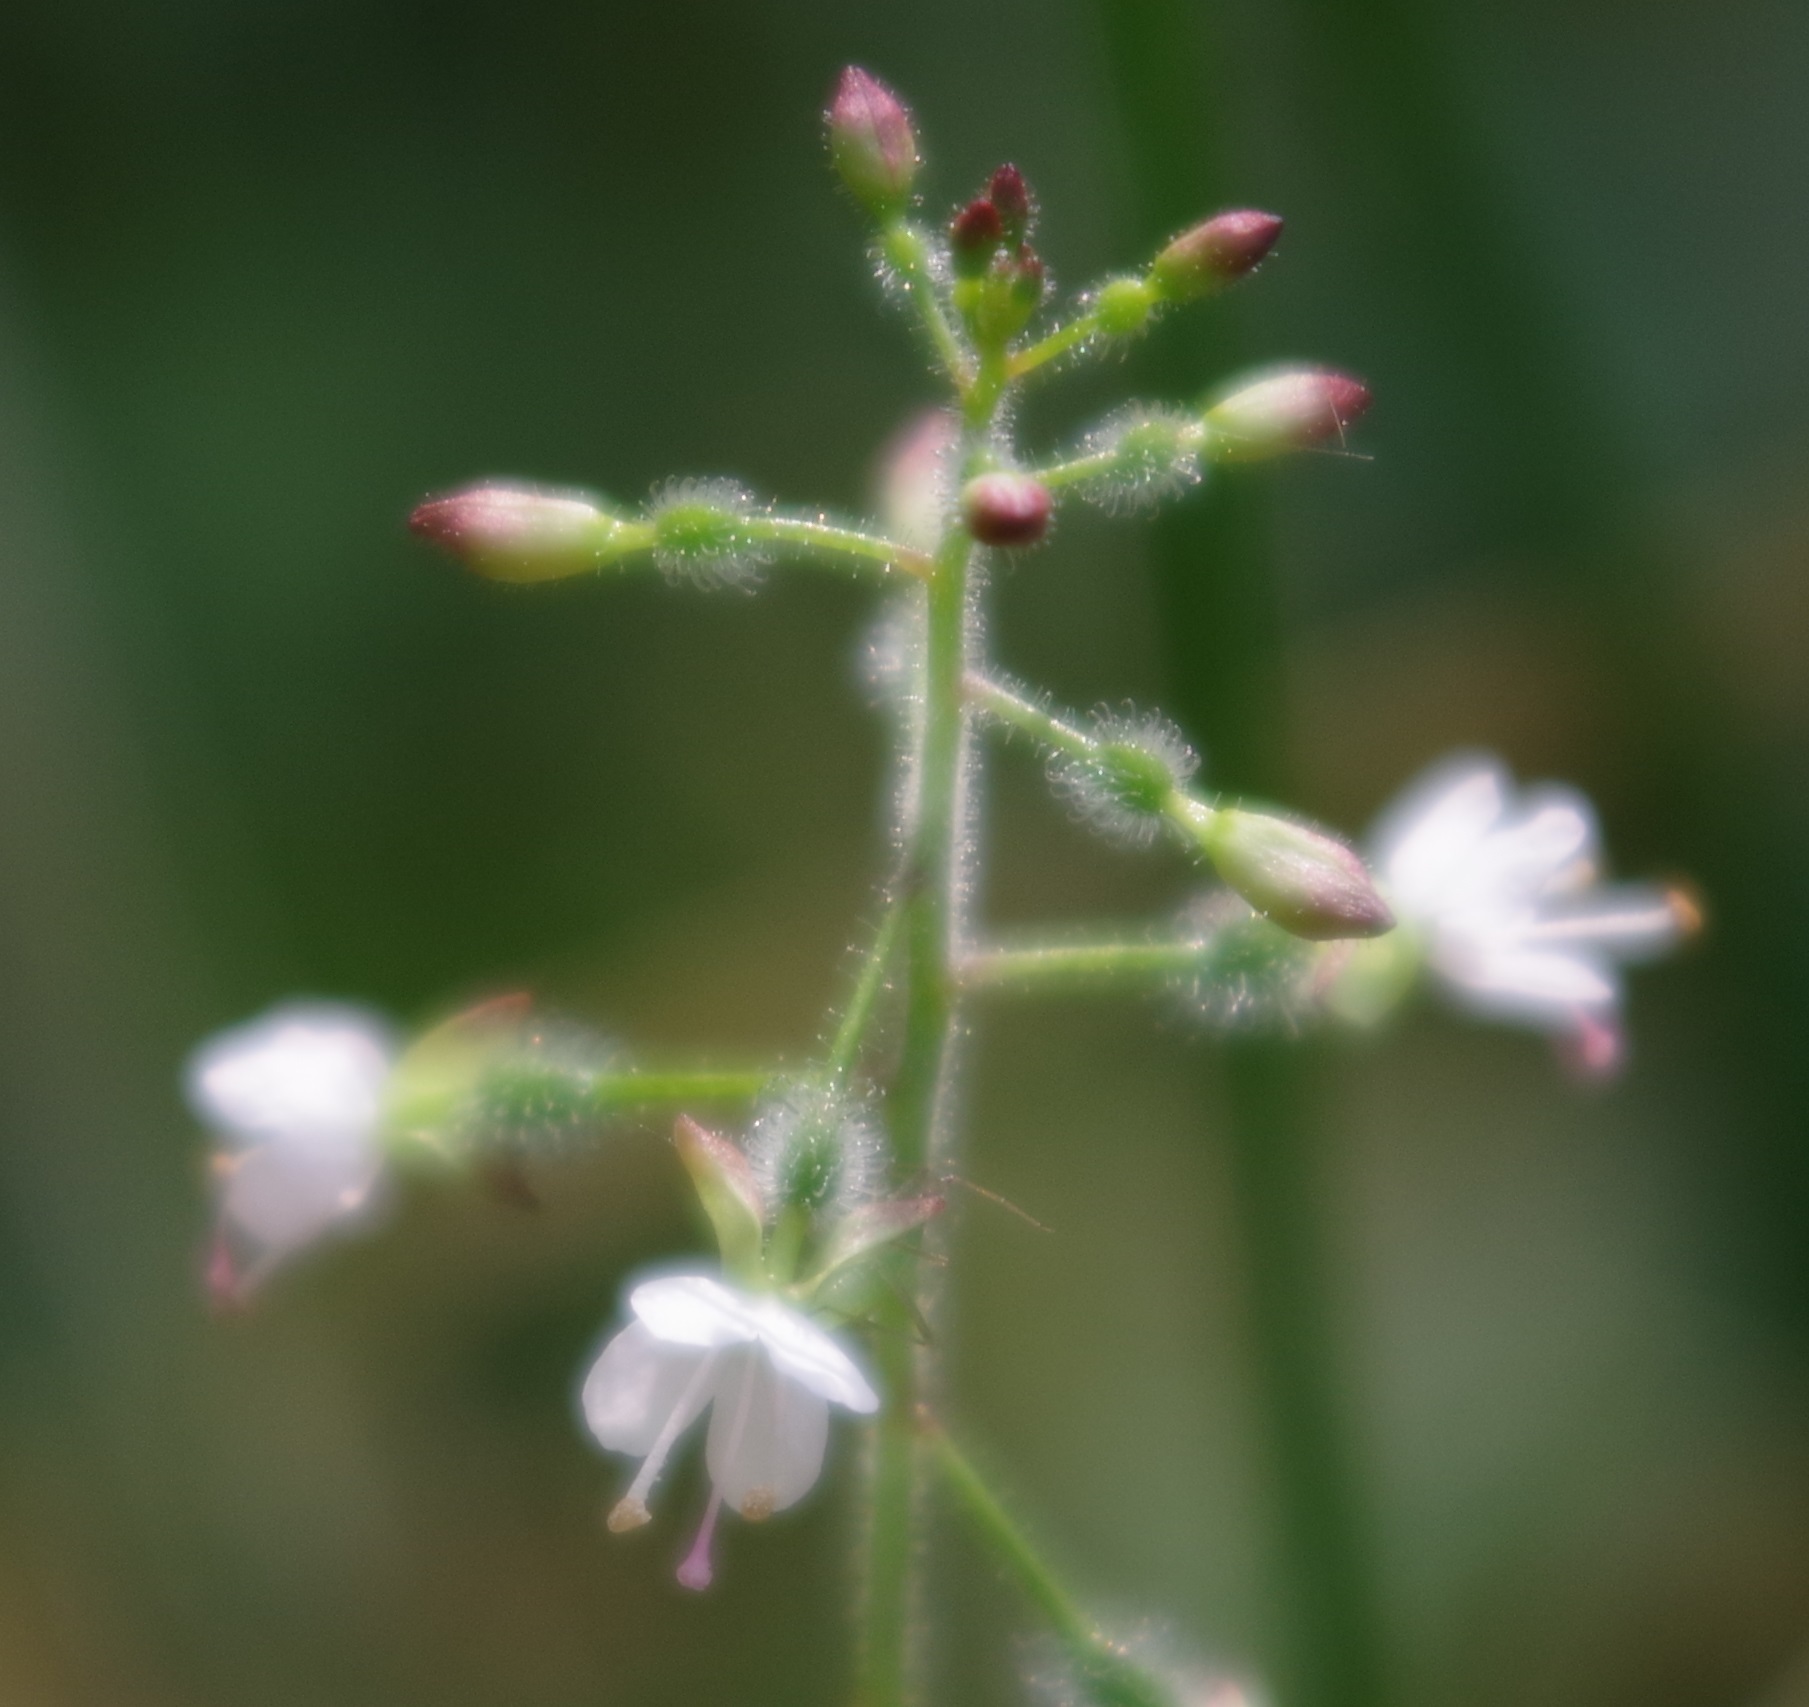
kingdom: Plantae
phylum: Tracheophyta
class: Magnoliopsida
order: Myrtales
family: Onagraceae
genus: Circaea
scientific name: Circaea lutetiana
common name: Enchanter's-nightshade
